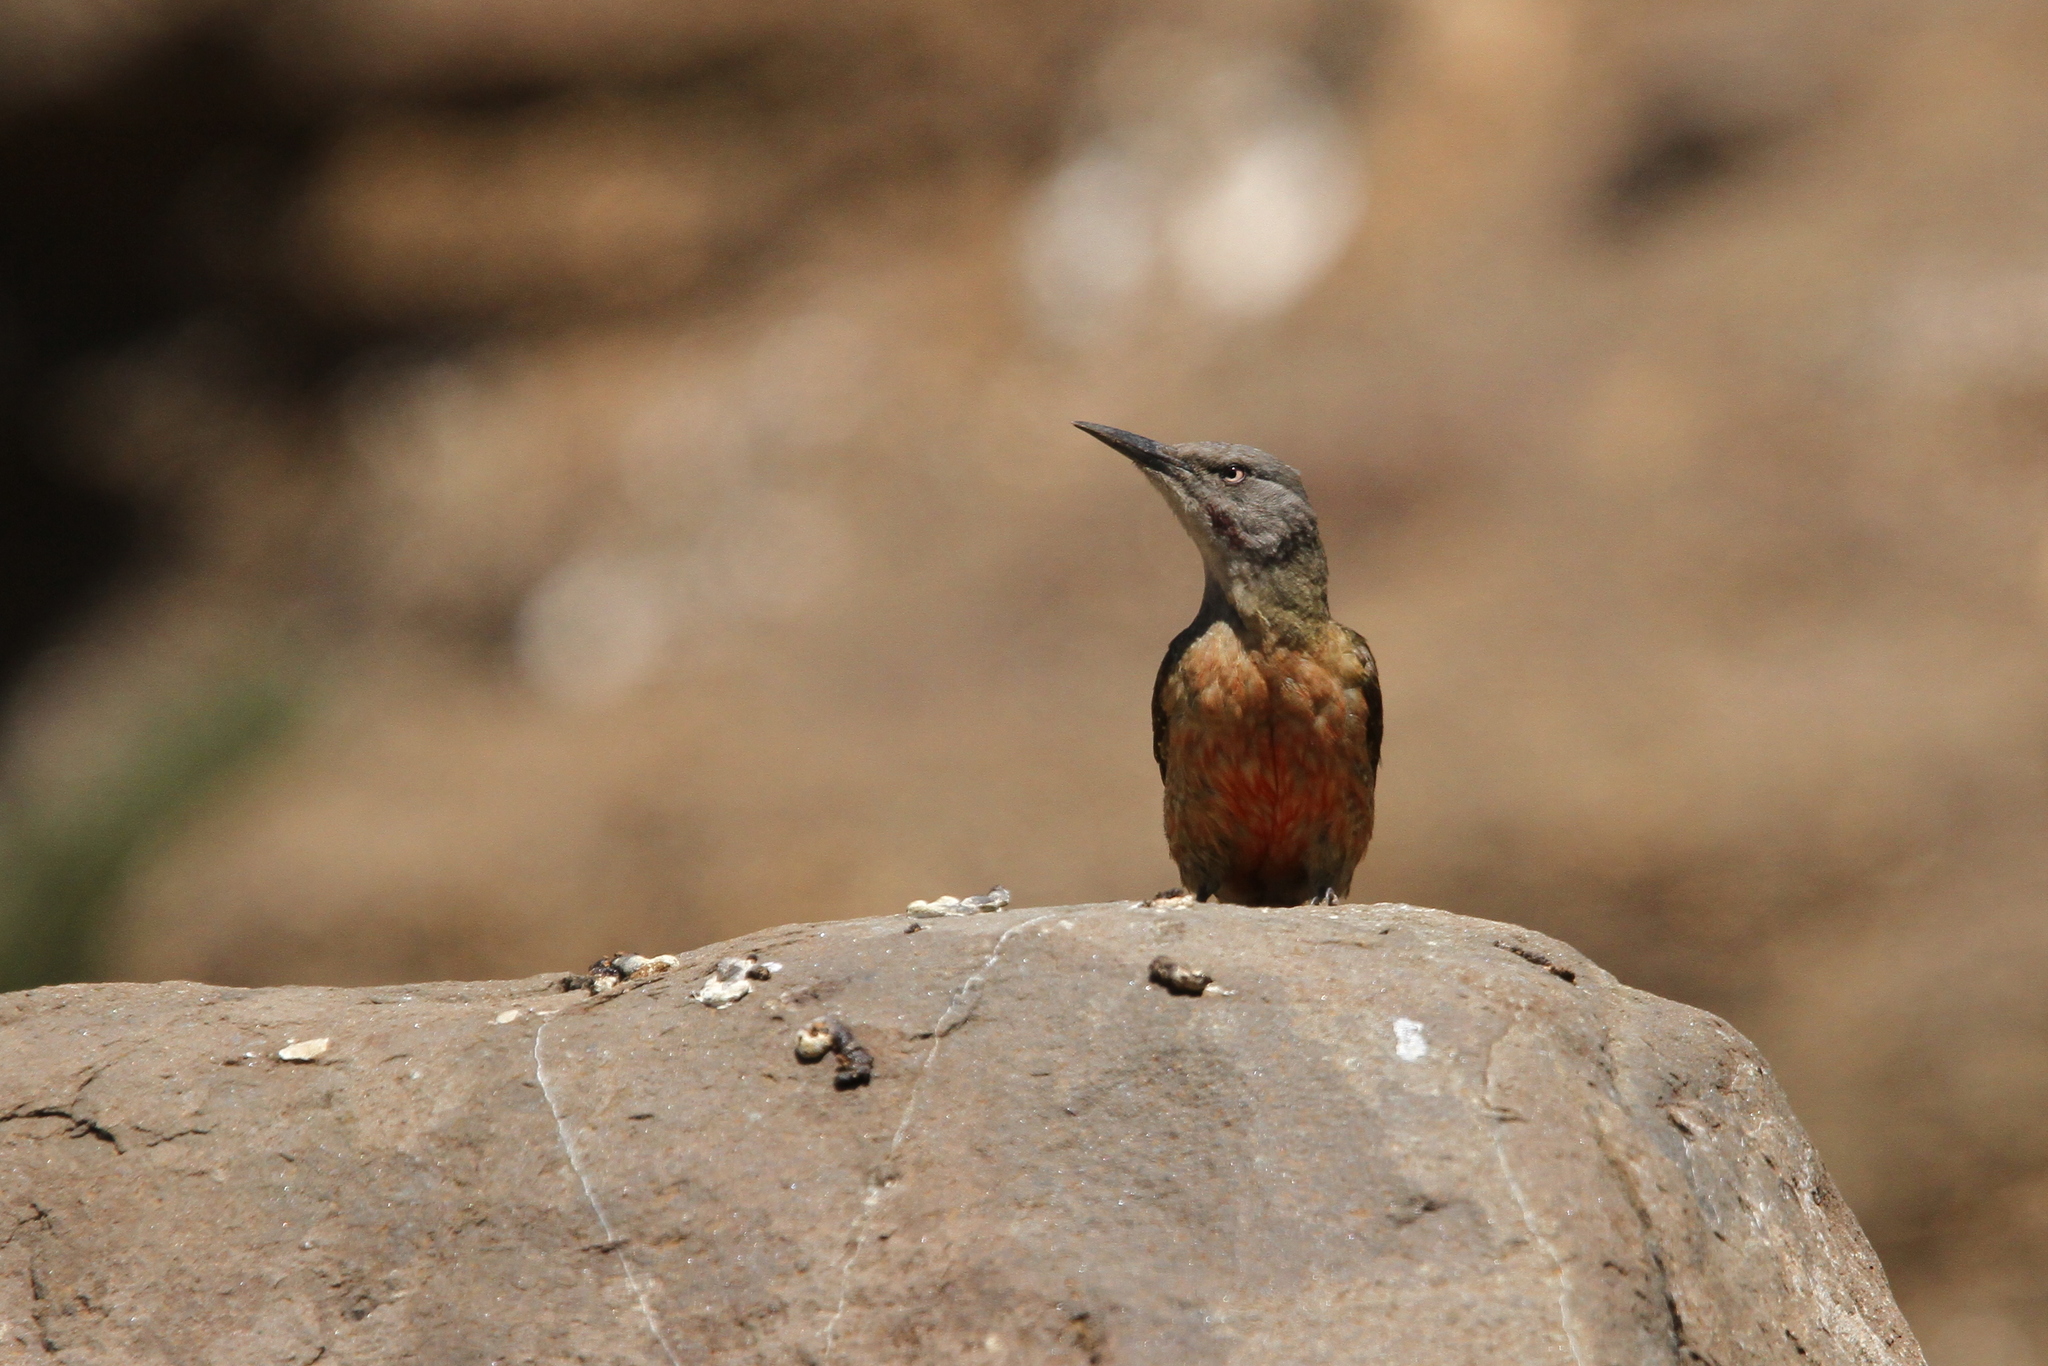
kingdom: Animalia
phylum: Chordata
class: Aves
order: Piciformes
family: Picidae
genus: Geocolaptes
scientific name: Geocolaptes olivaceus
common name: Ground woodpecker
